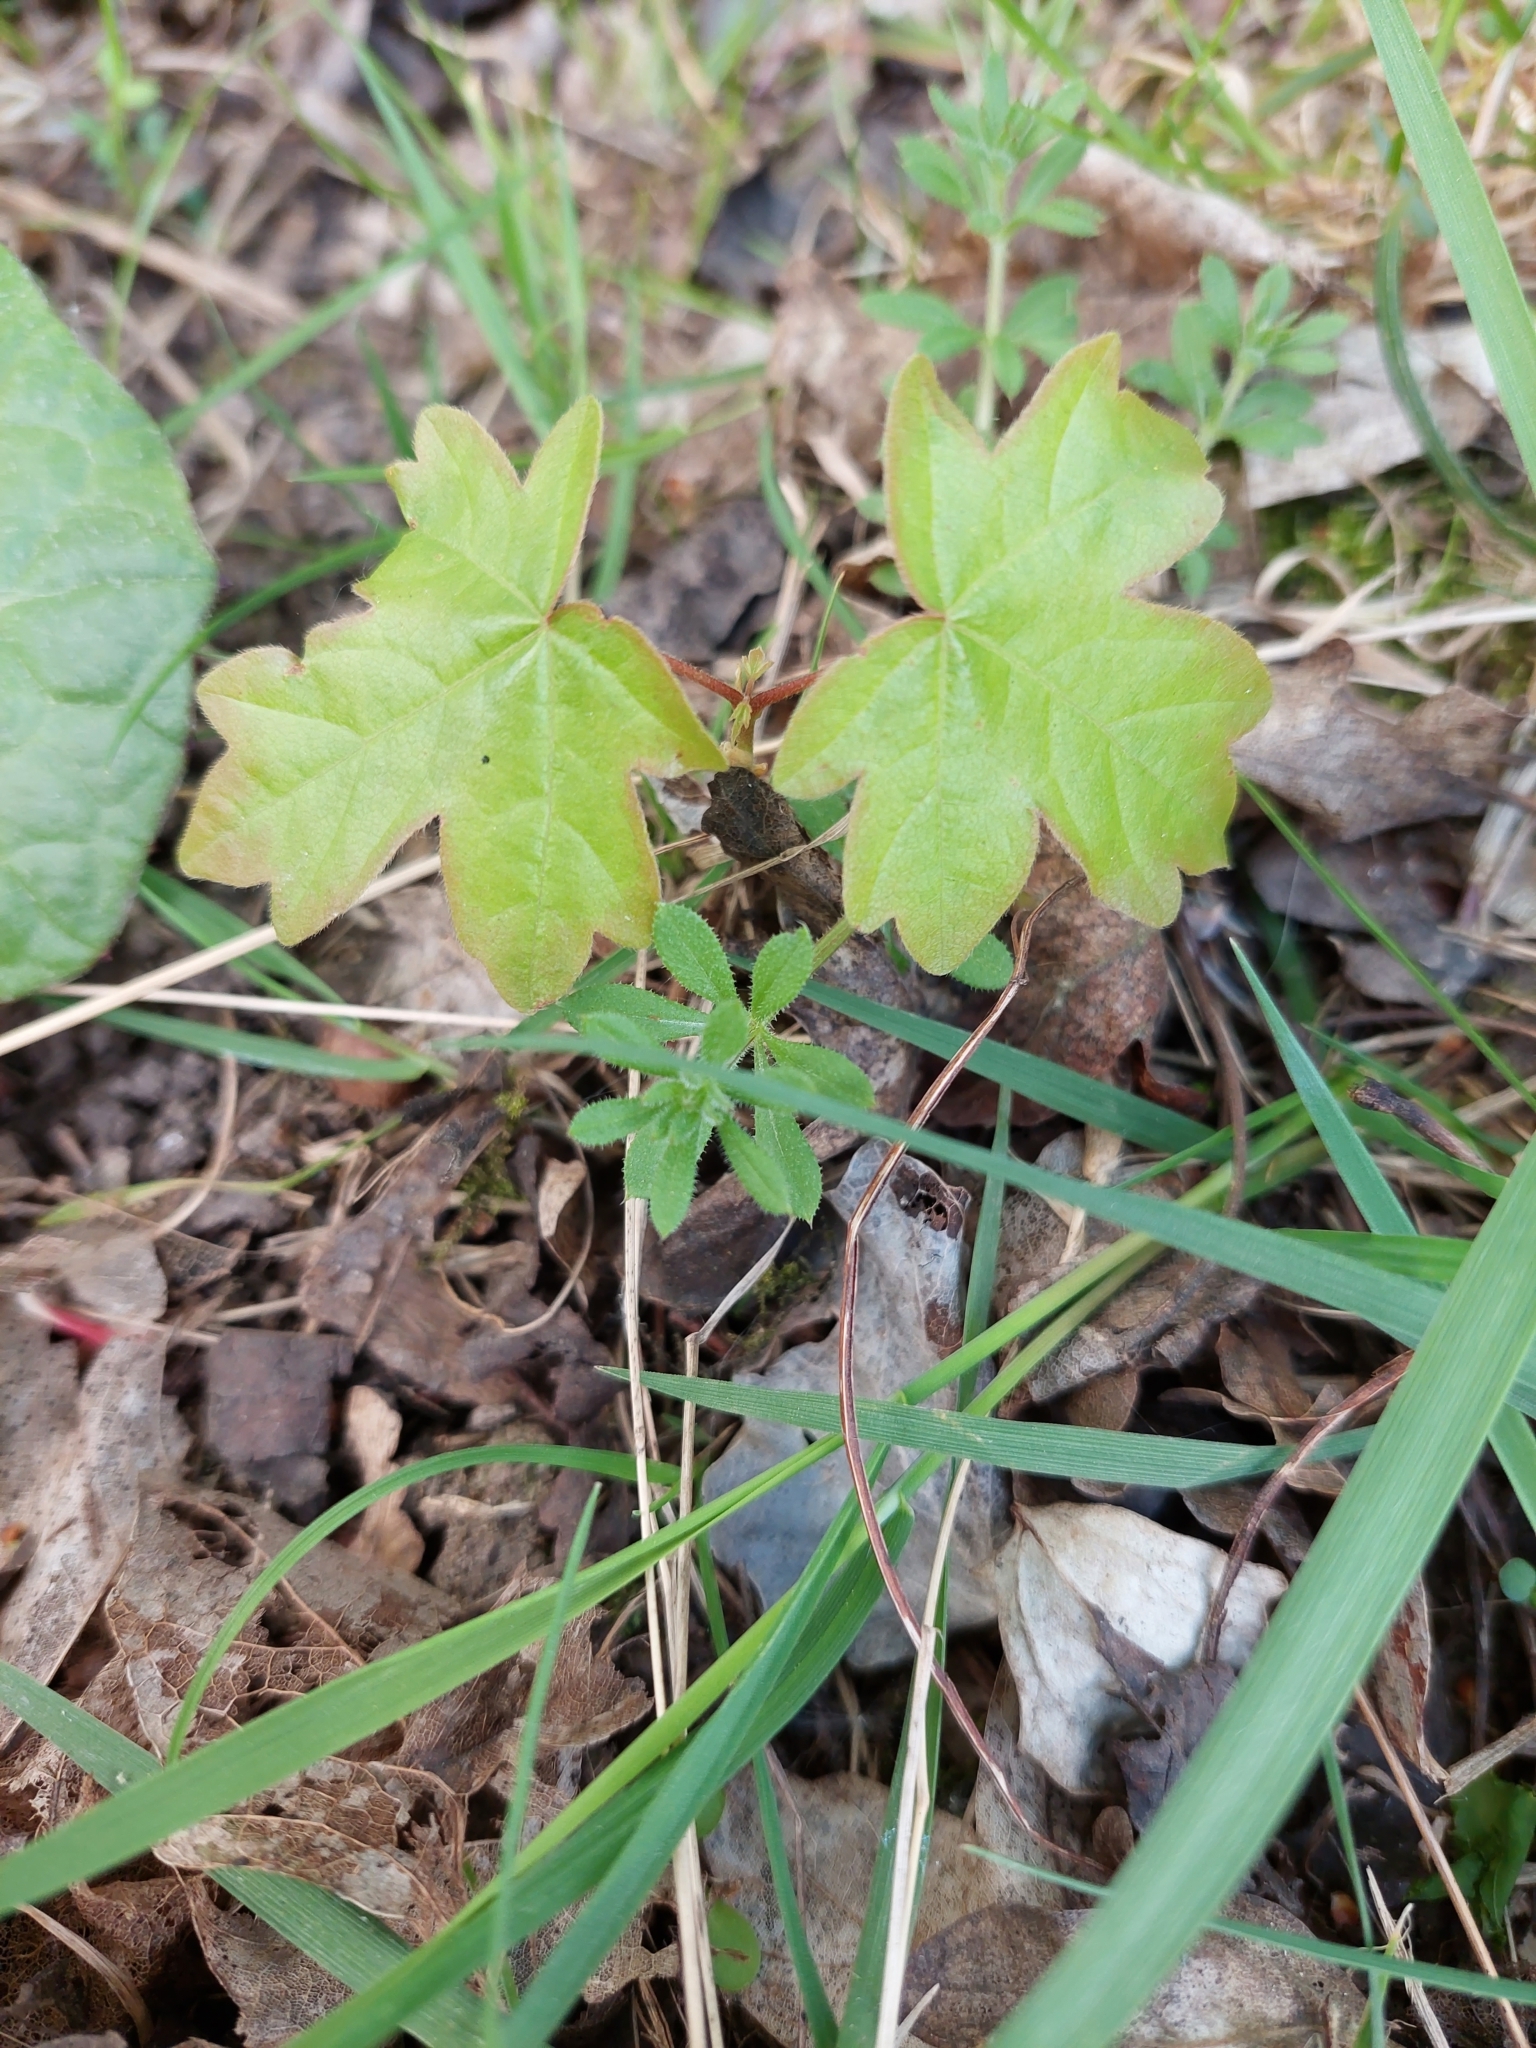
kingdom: Plantae
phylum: Tracheophyta
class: Magnoliopsida
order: Sapindales
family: Sapindaceae
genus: Acer
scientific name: Acer campestre
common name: Field maple
